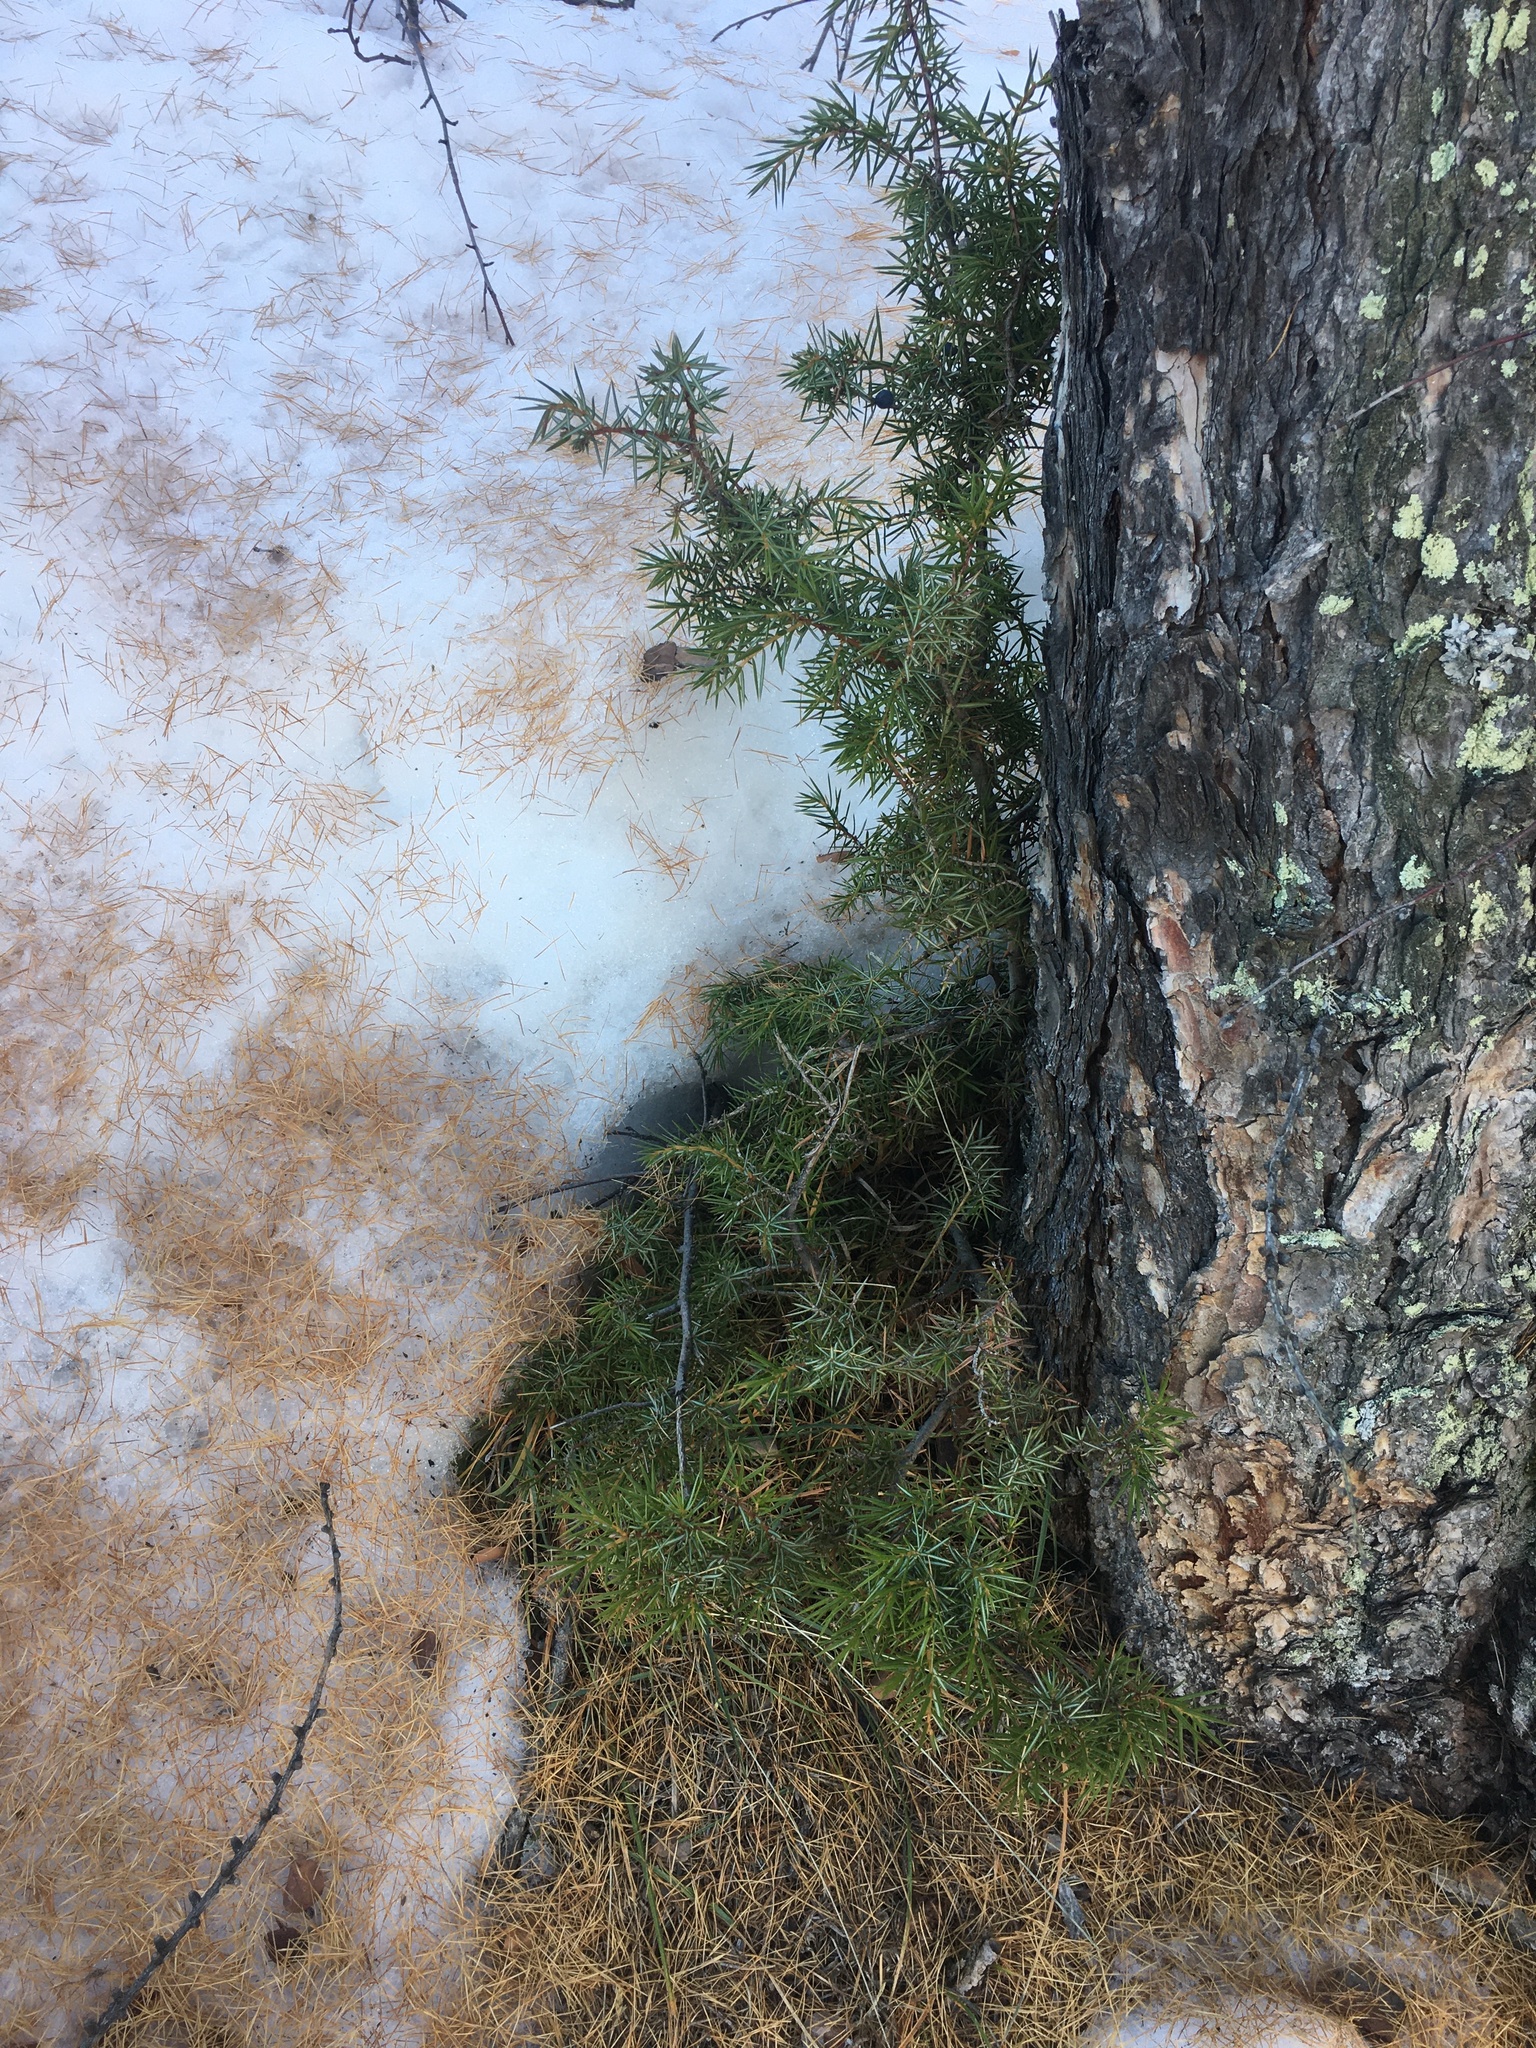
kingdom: Plantae
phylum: Tracheophyta
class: Pinopsida
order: Pinales
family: Cupressaceae
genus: Juniperus
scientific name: Juniperus communis
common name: Common juniper
